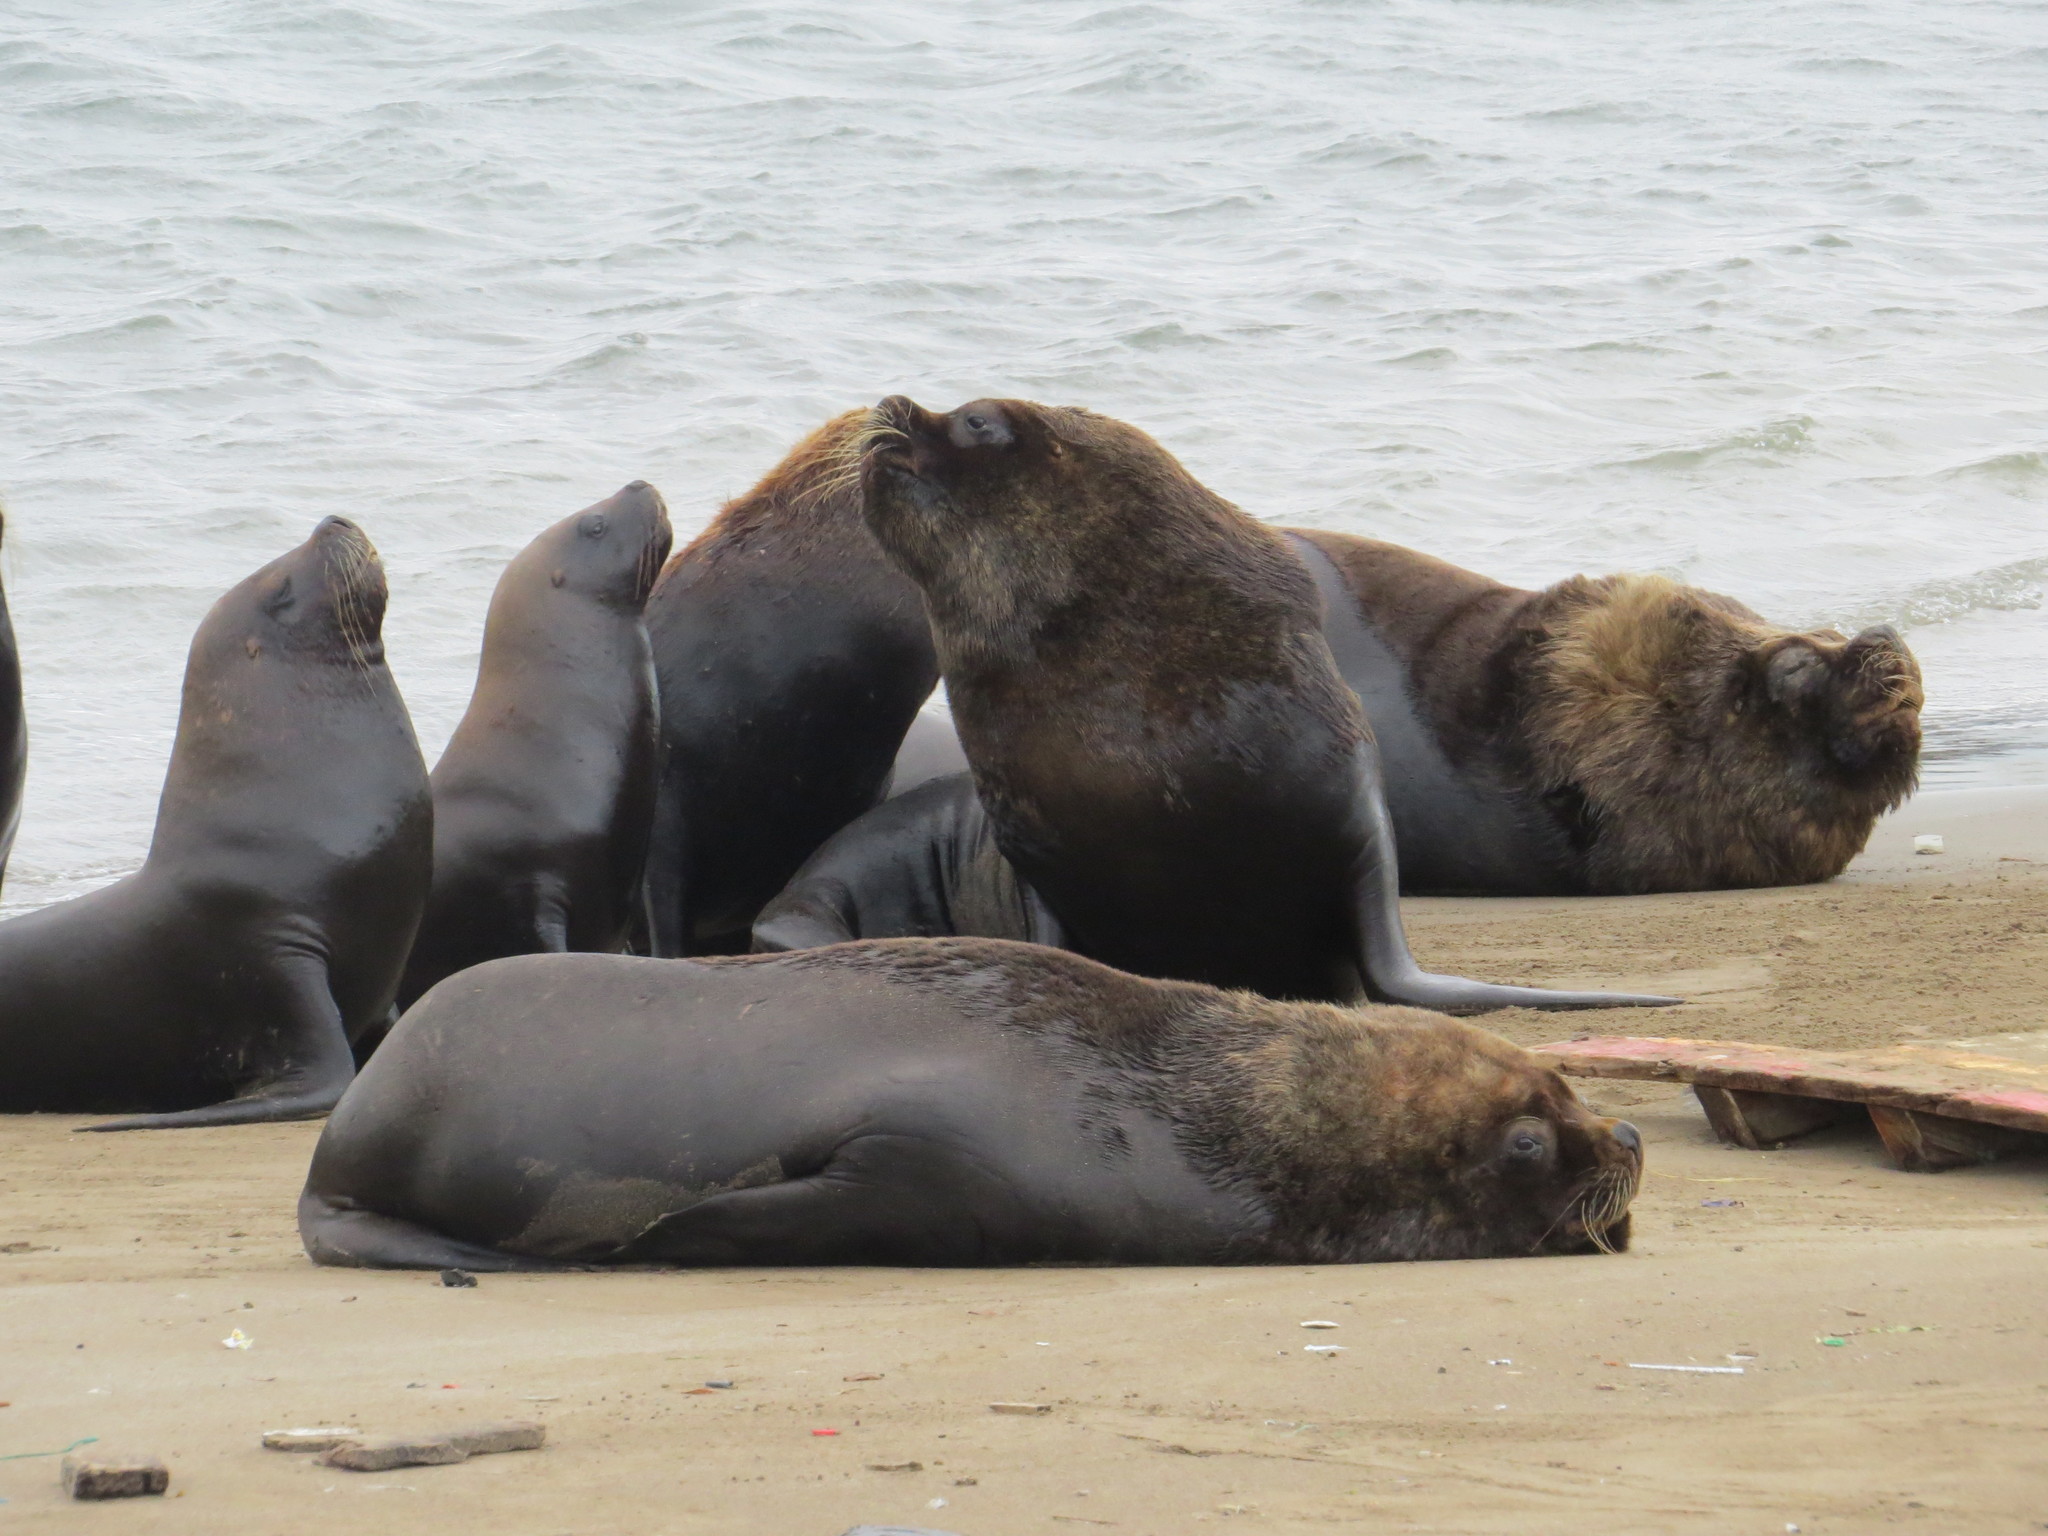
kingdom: Animalia
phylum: Chordata
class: Mammalia
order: Carnivora
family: Otariidae
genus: Otaria
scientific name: Otaria byronia
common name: South american sea lion
